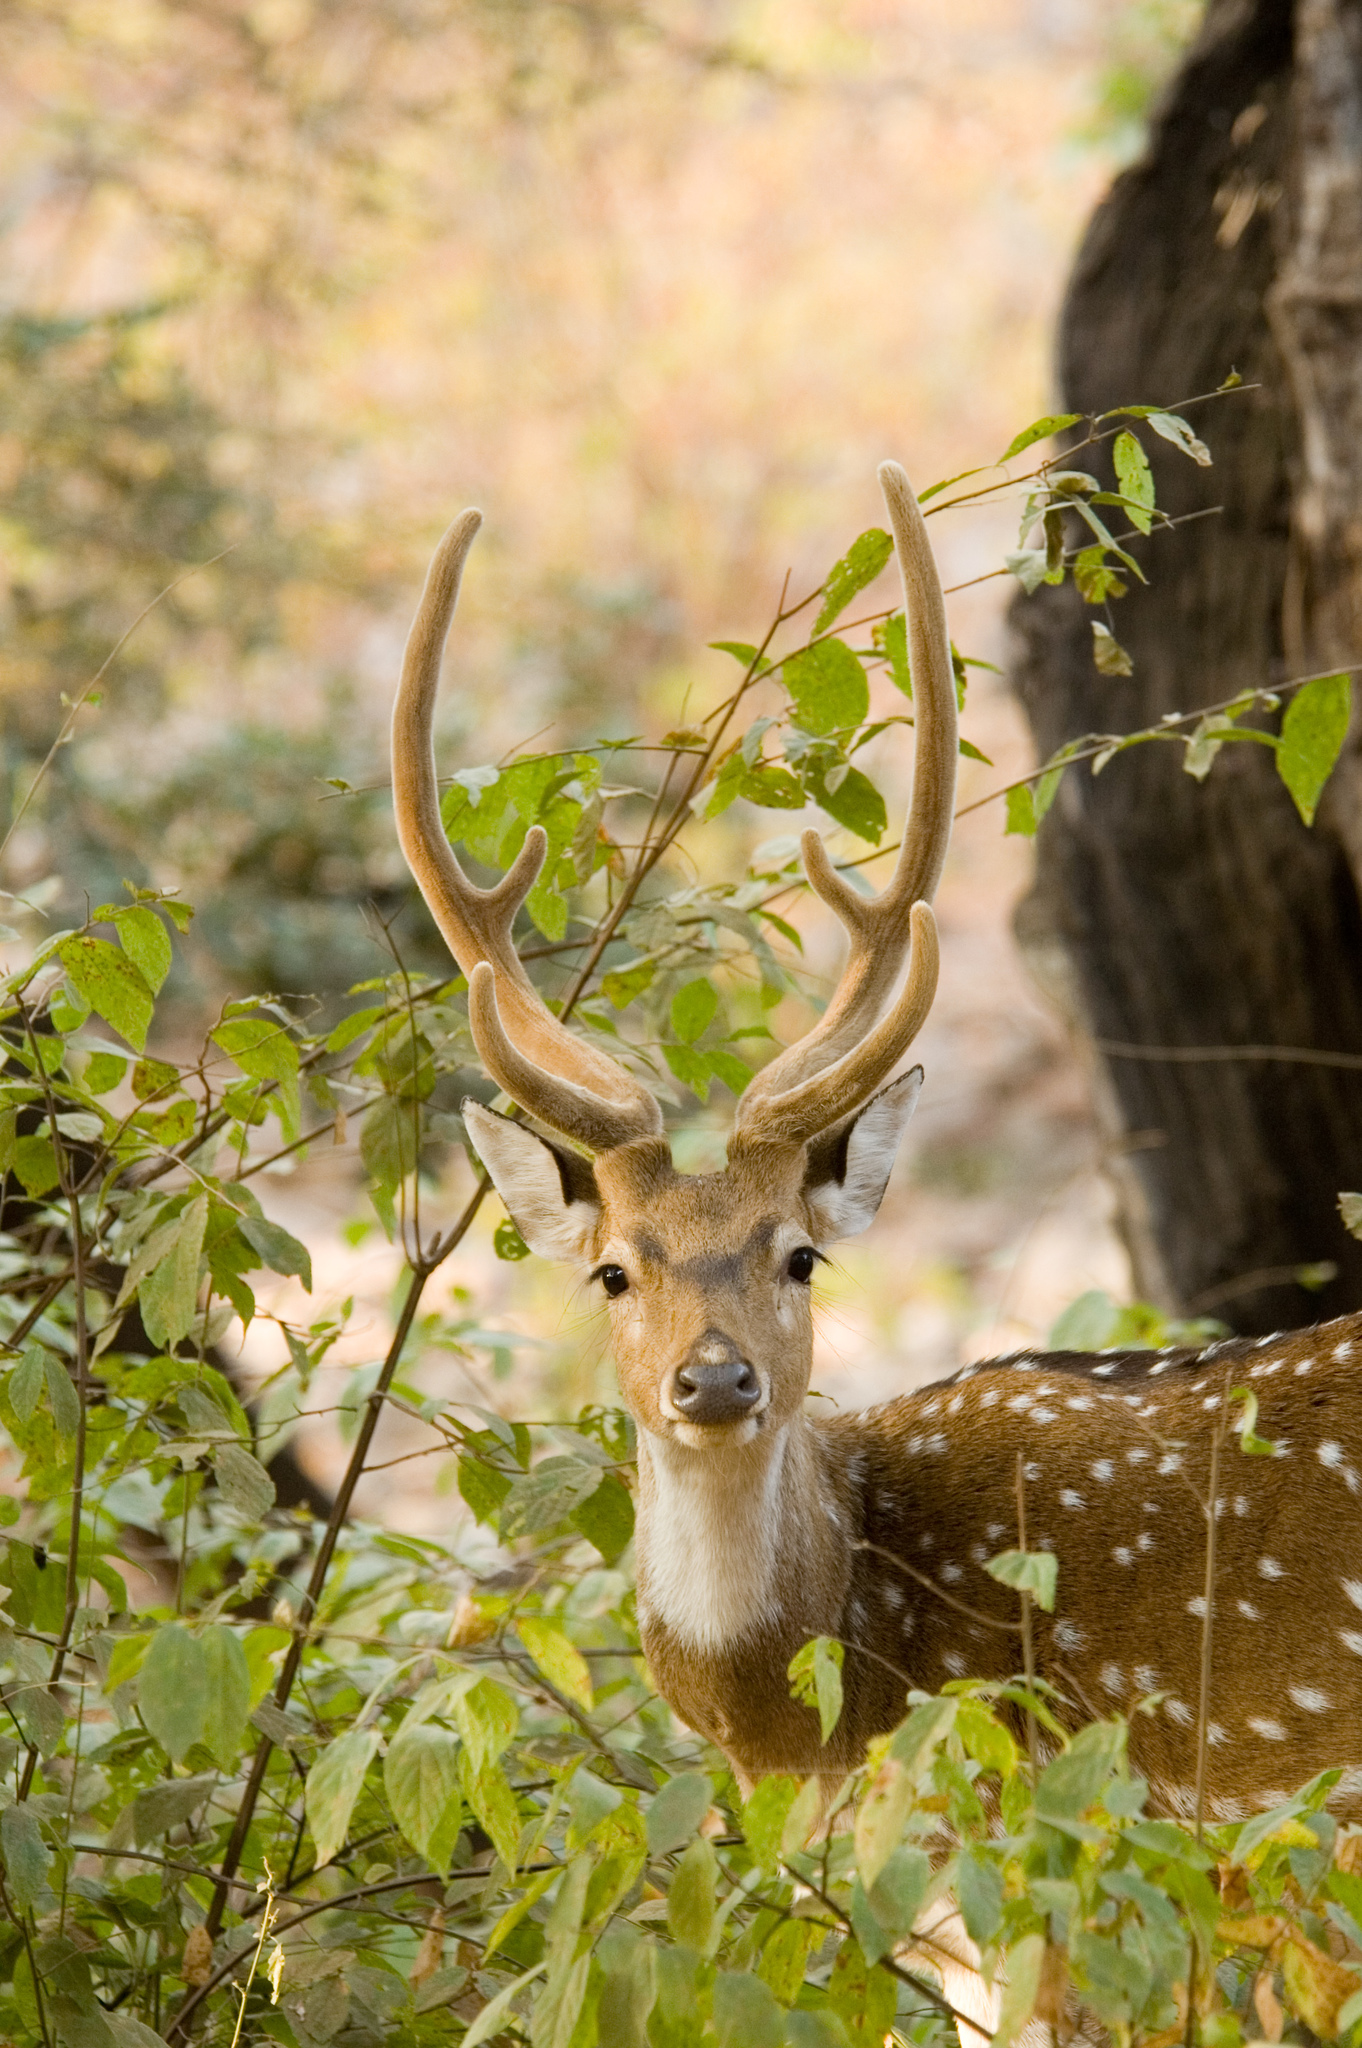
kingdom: Animalia
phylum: Chordata
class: Mammalia
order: Artiodactyla
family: Cervidae
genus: Axis
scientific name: Axis axis
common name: Chital
